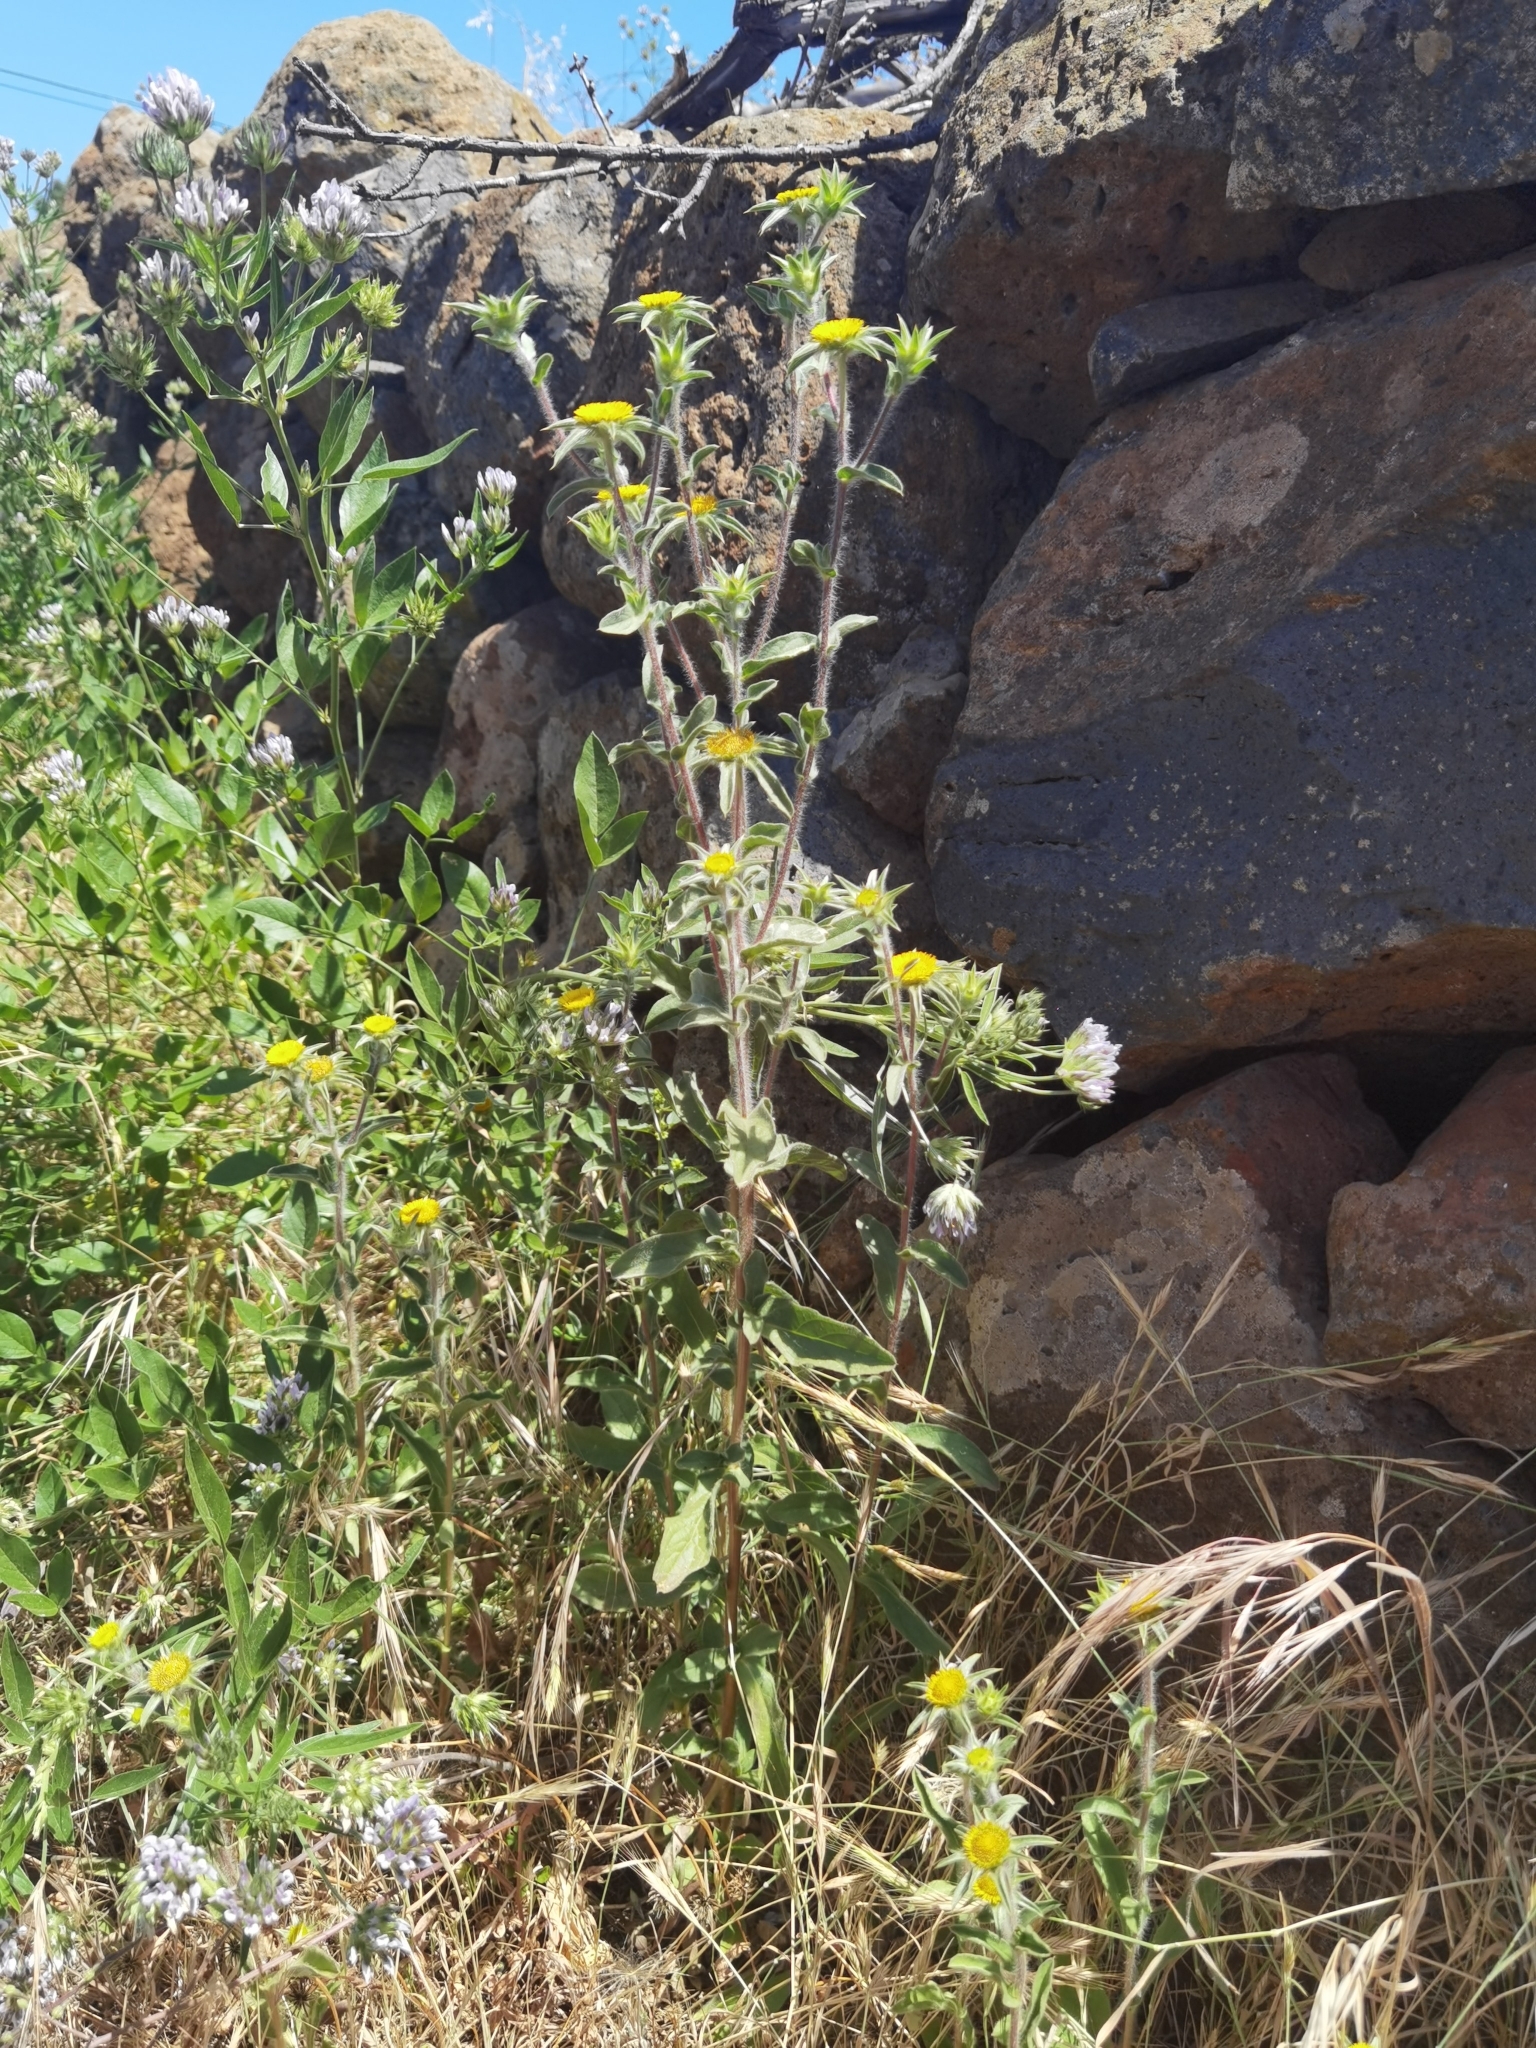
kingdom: Plantae
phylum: Tracheophyta
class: Magnoliopsida
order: Asterales
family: Asteraceae
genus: Pallenis
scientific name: Pallenis spinosa
